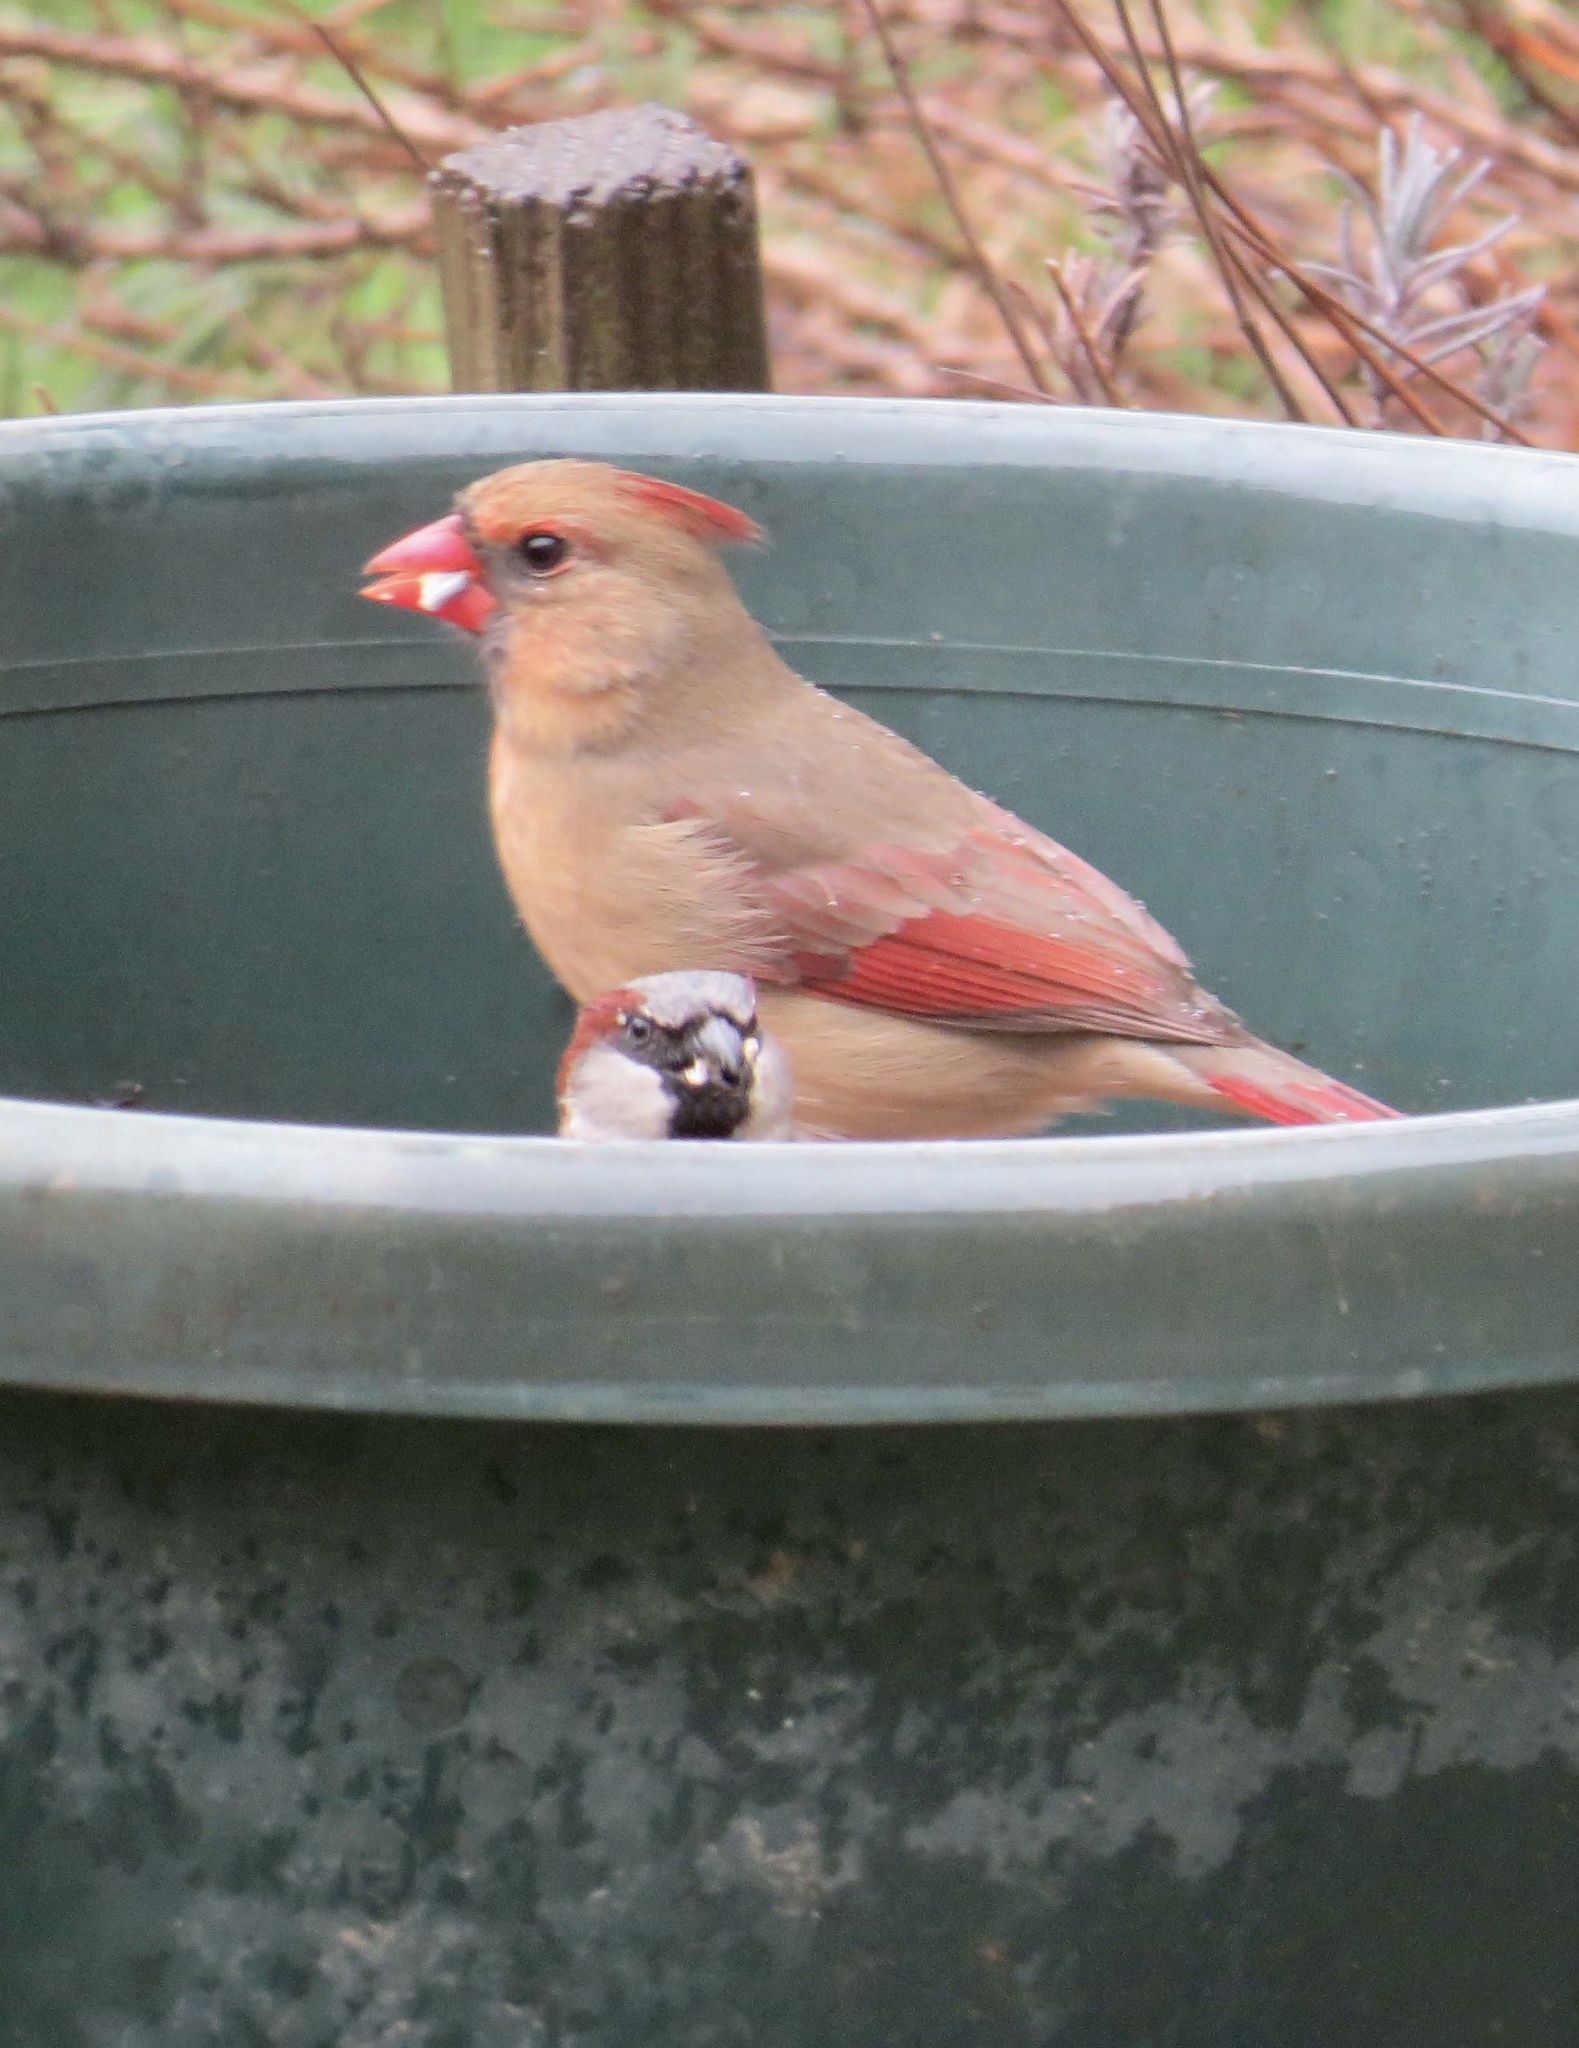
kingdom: Animalia
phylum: Chordata
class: Aves
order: Passeriformes
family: Cardinalidae
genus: Cardinalis
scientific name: Cardinalis cardinalis
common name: Northern cardinal
